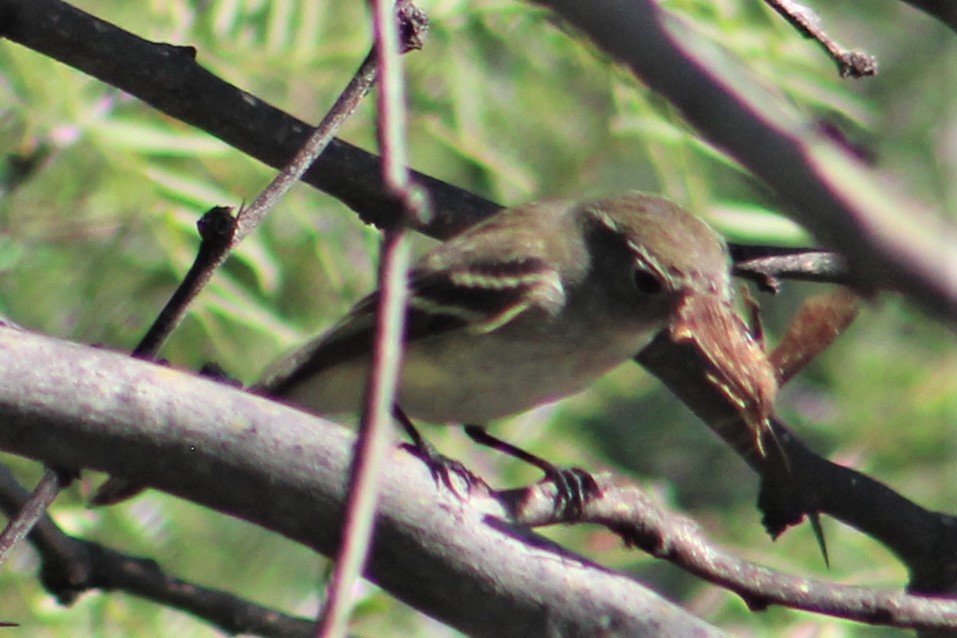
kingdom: Animalia
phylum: Chordata
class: Aves
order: Passeriformes
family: Tyrannidae
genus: Empidonax
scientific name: Empidonax minimus
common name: Least flycatcher
